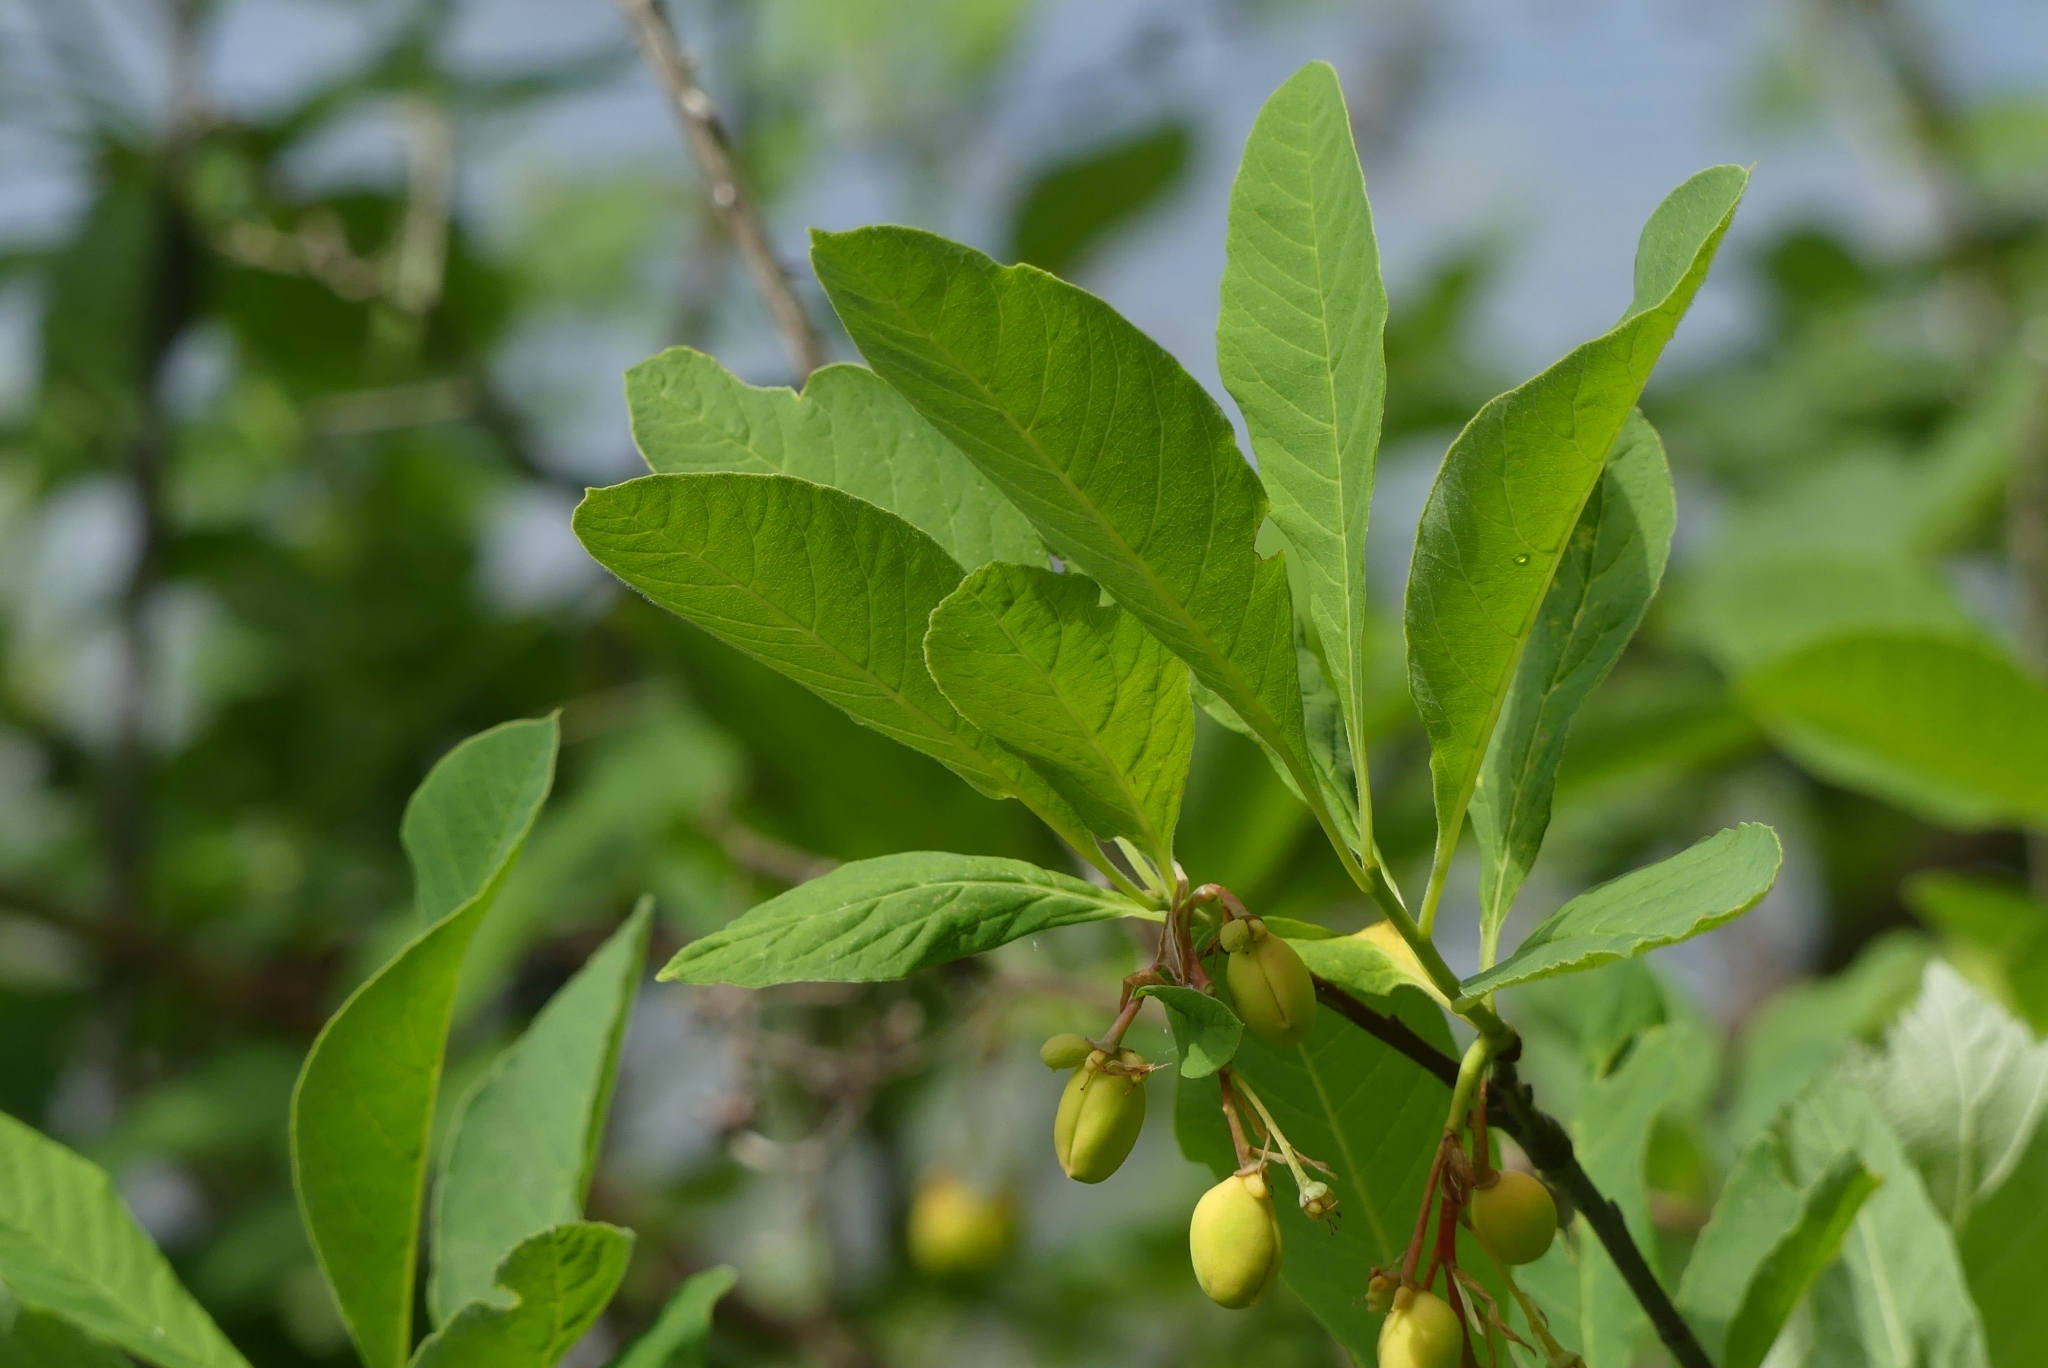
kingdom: Plantae
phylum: Tracheophyta
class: Magnoliopsida
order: Rosales
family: Rosaceae
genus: Oemleria
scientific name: Oemleria cerasiformis
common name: Osoberry
